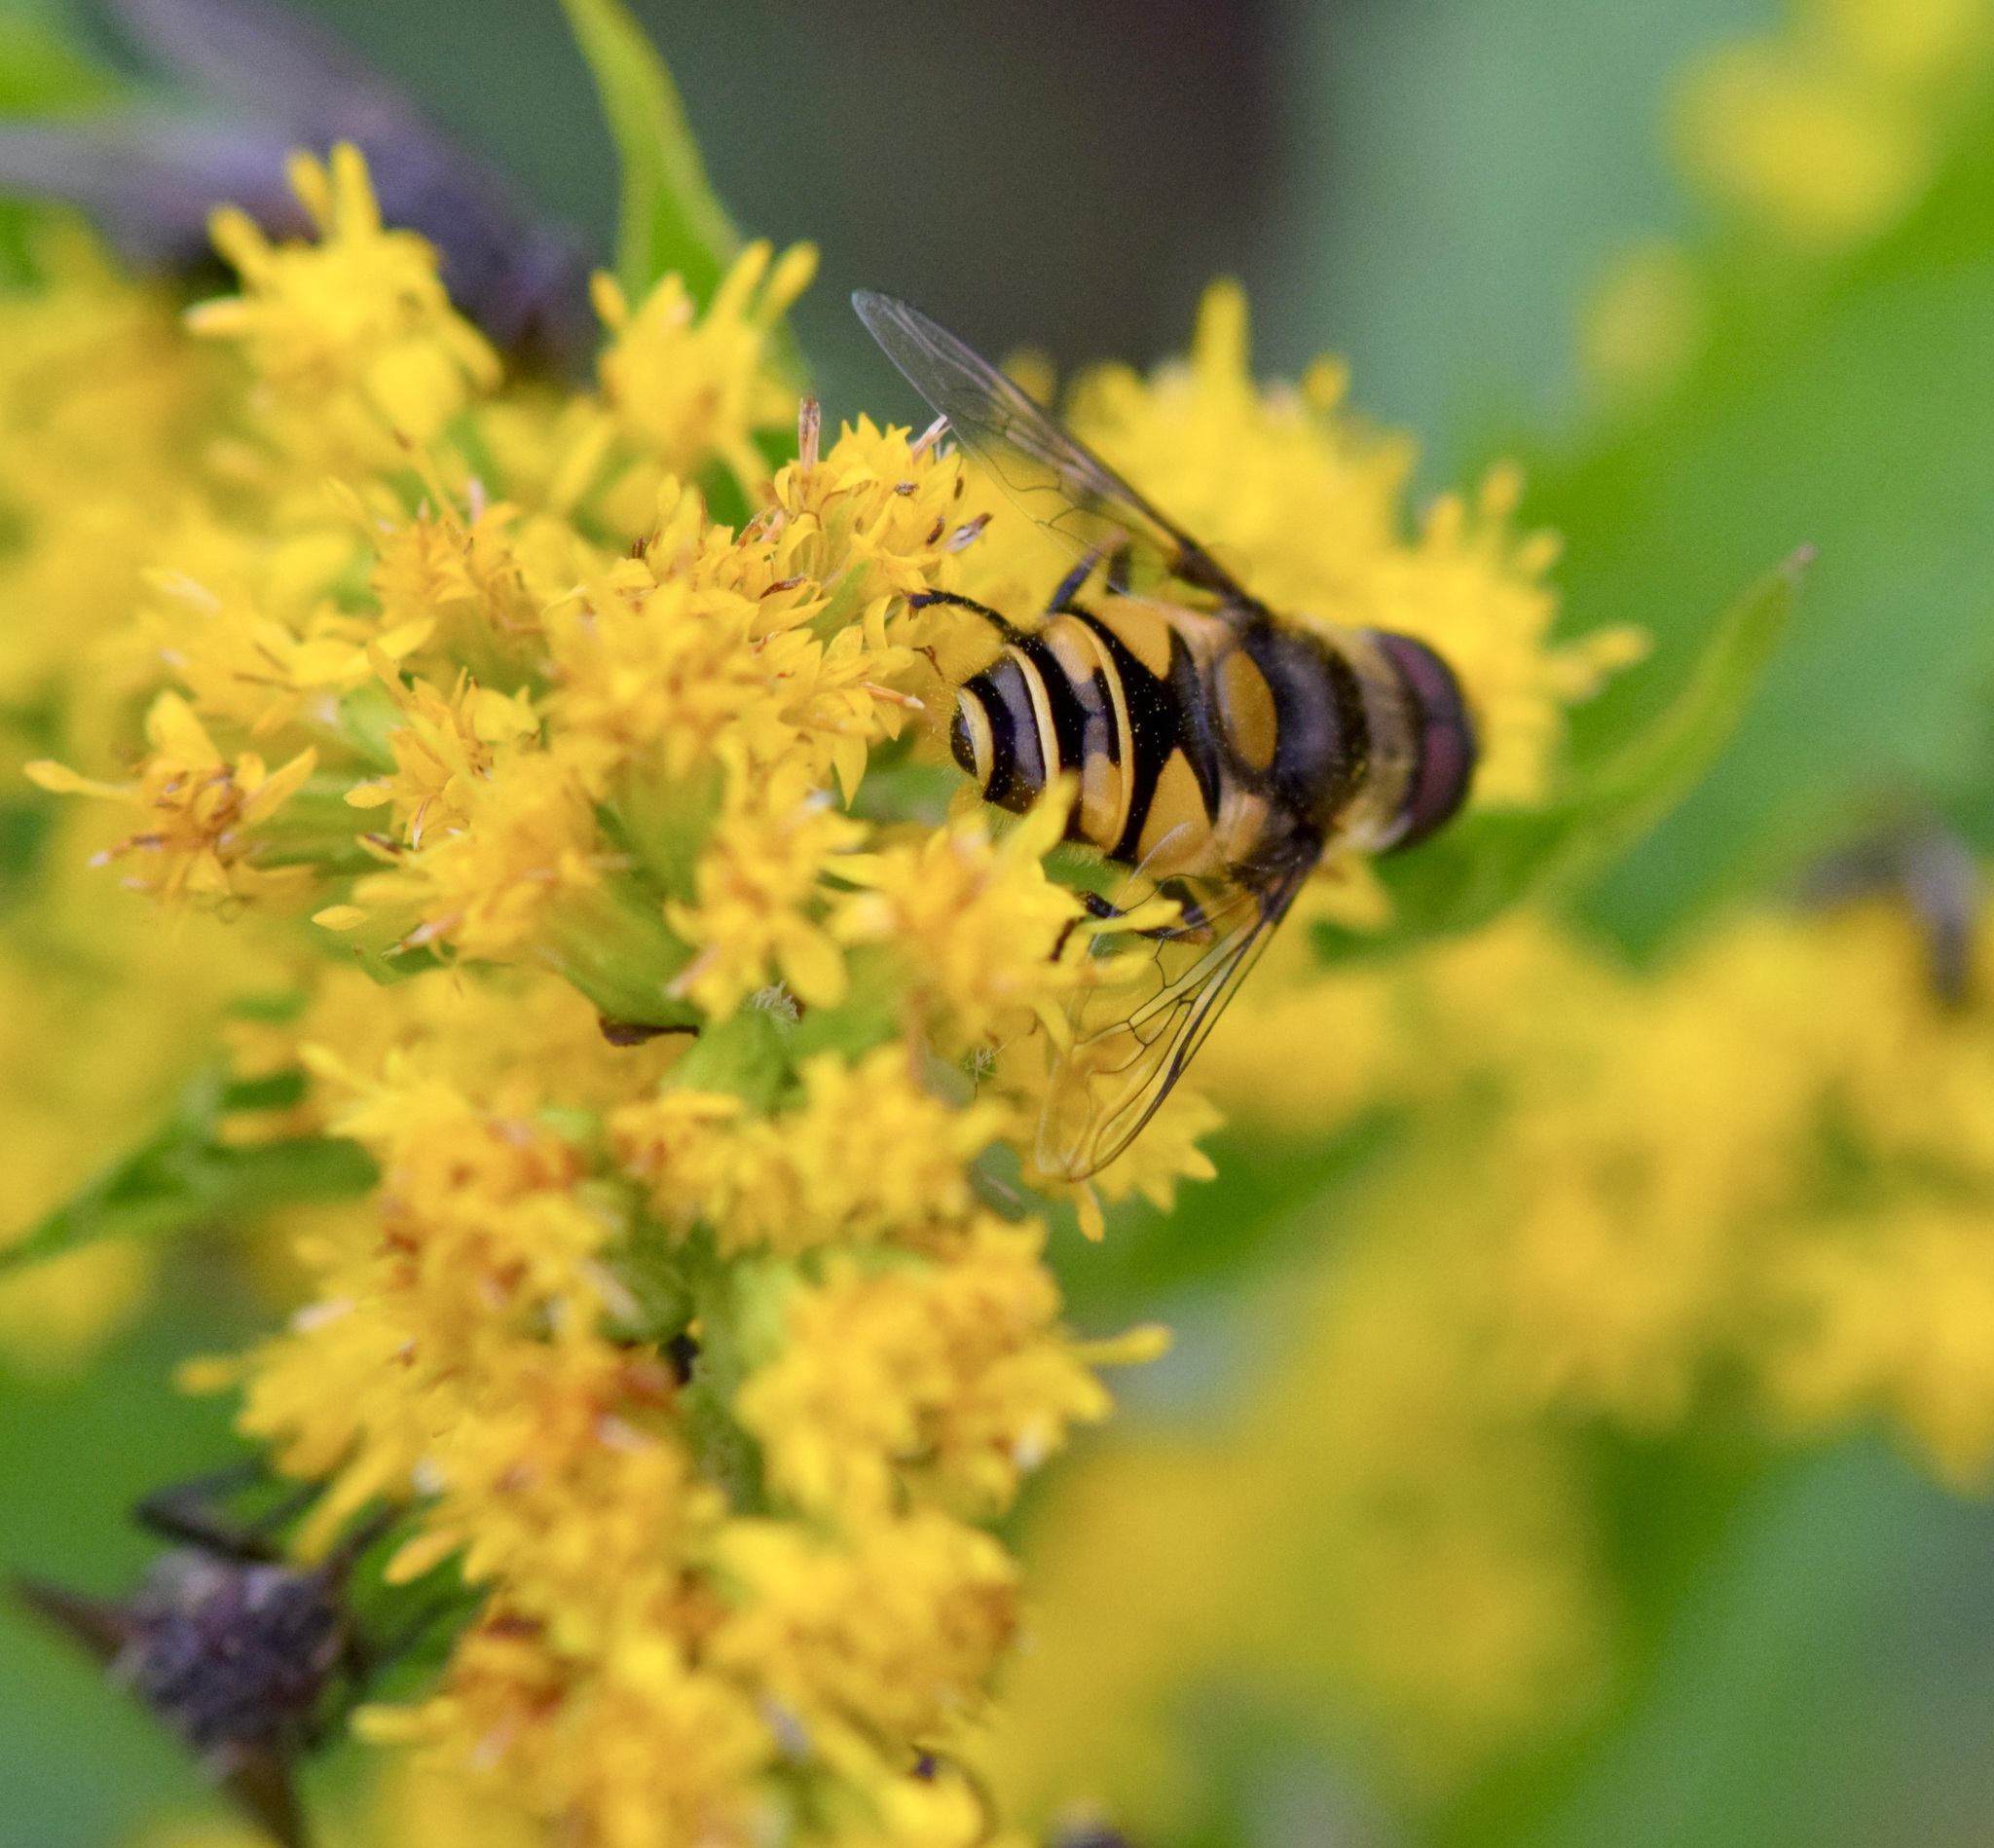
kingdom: Animalia
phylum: Arthropoda
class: Insecta
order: Diptera
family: Syrphidae
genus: Eristalis
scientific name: Eristalis transversa
